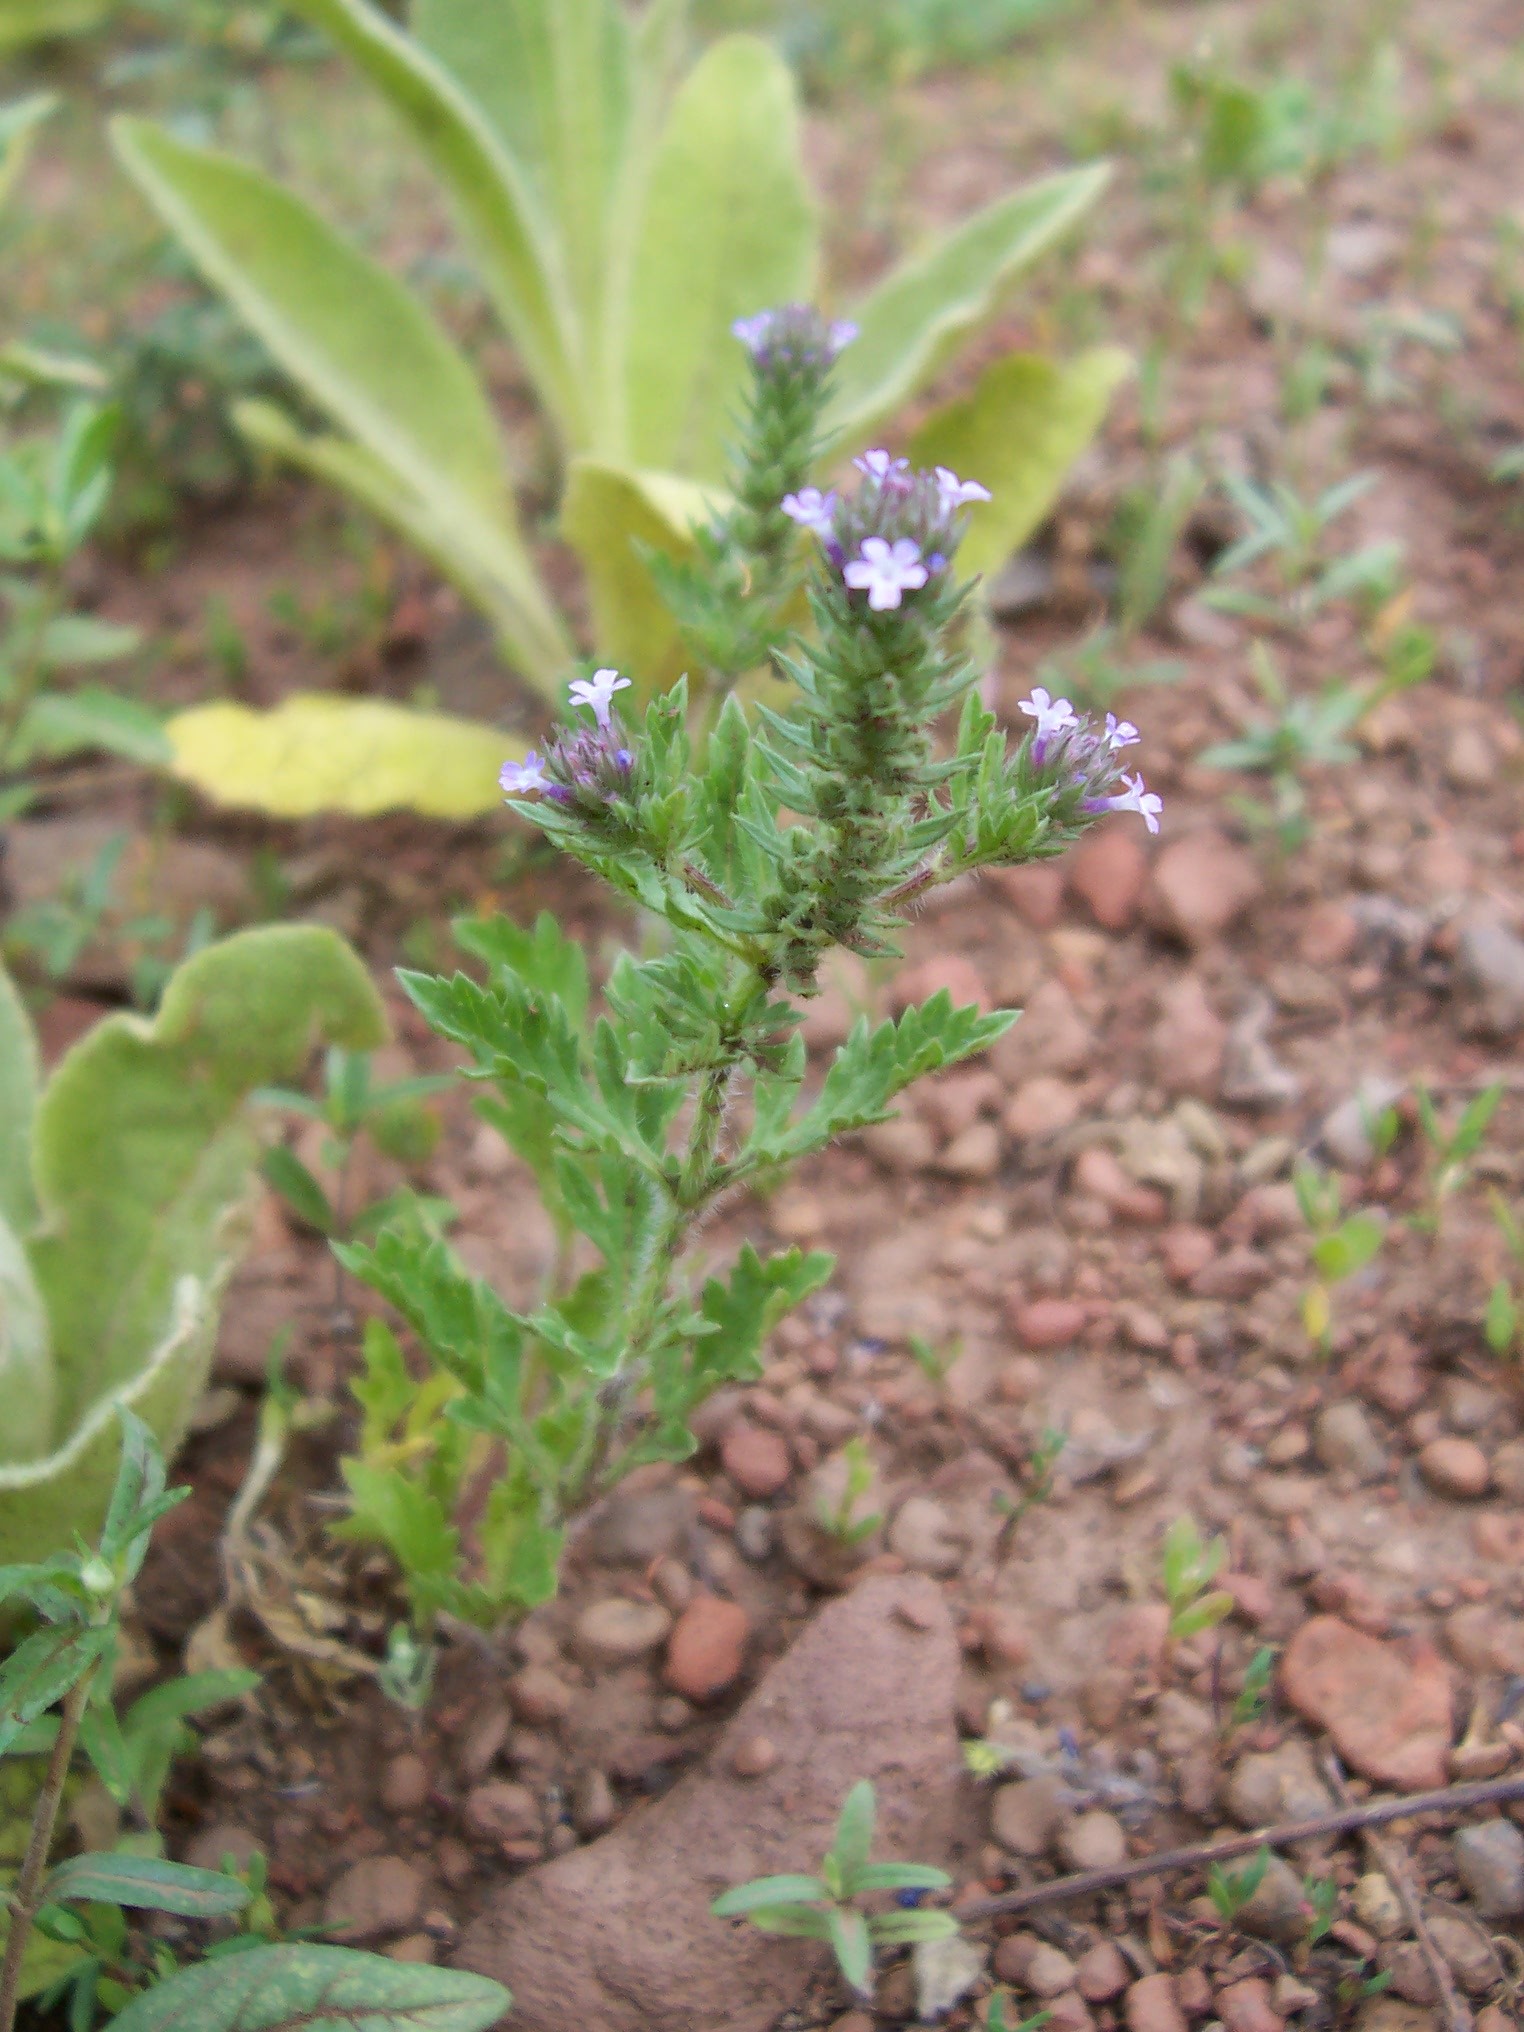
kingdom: Plantae
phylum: Tracheophyta
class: Magnoliopsida
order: Lamiales
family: Verbenaceae
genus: Verbena
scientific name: Verbena bracteata
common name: Bracted vervain
